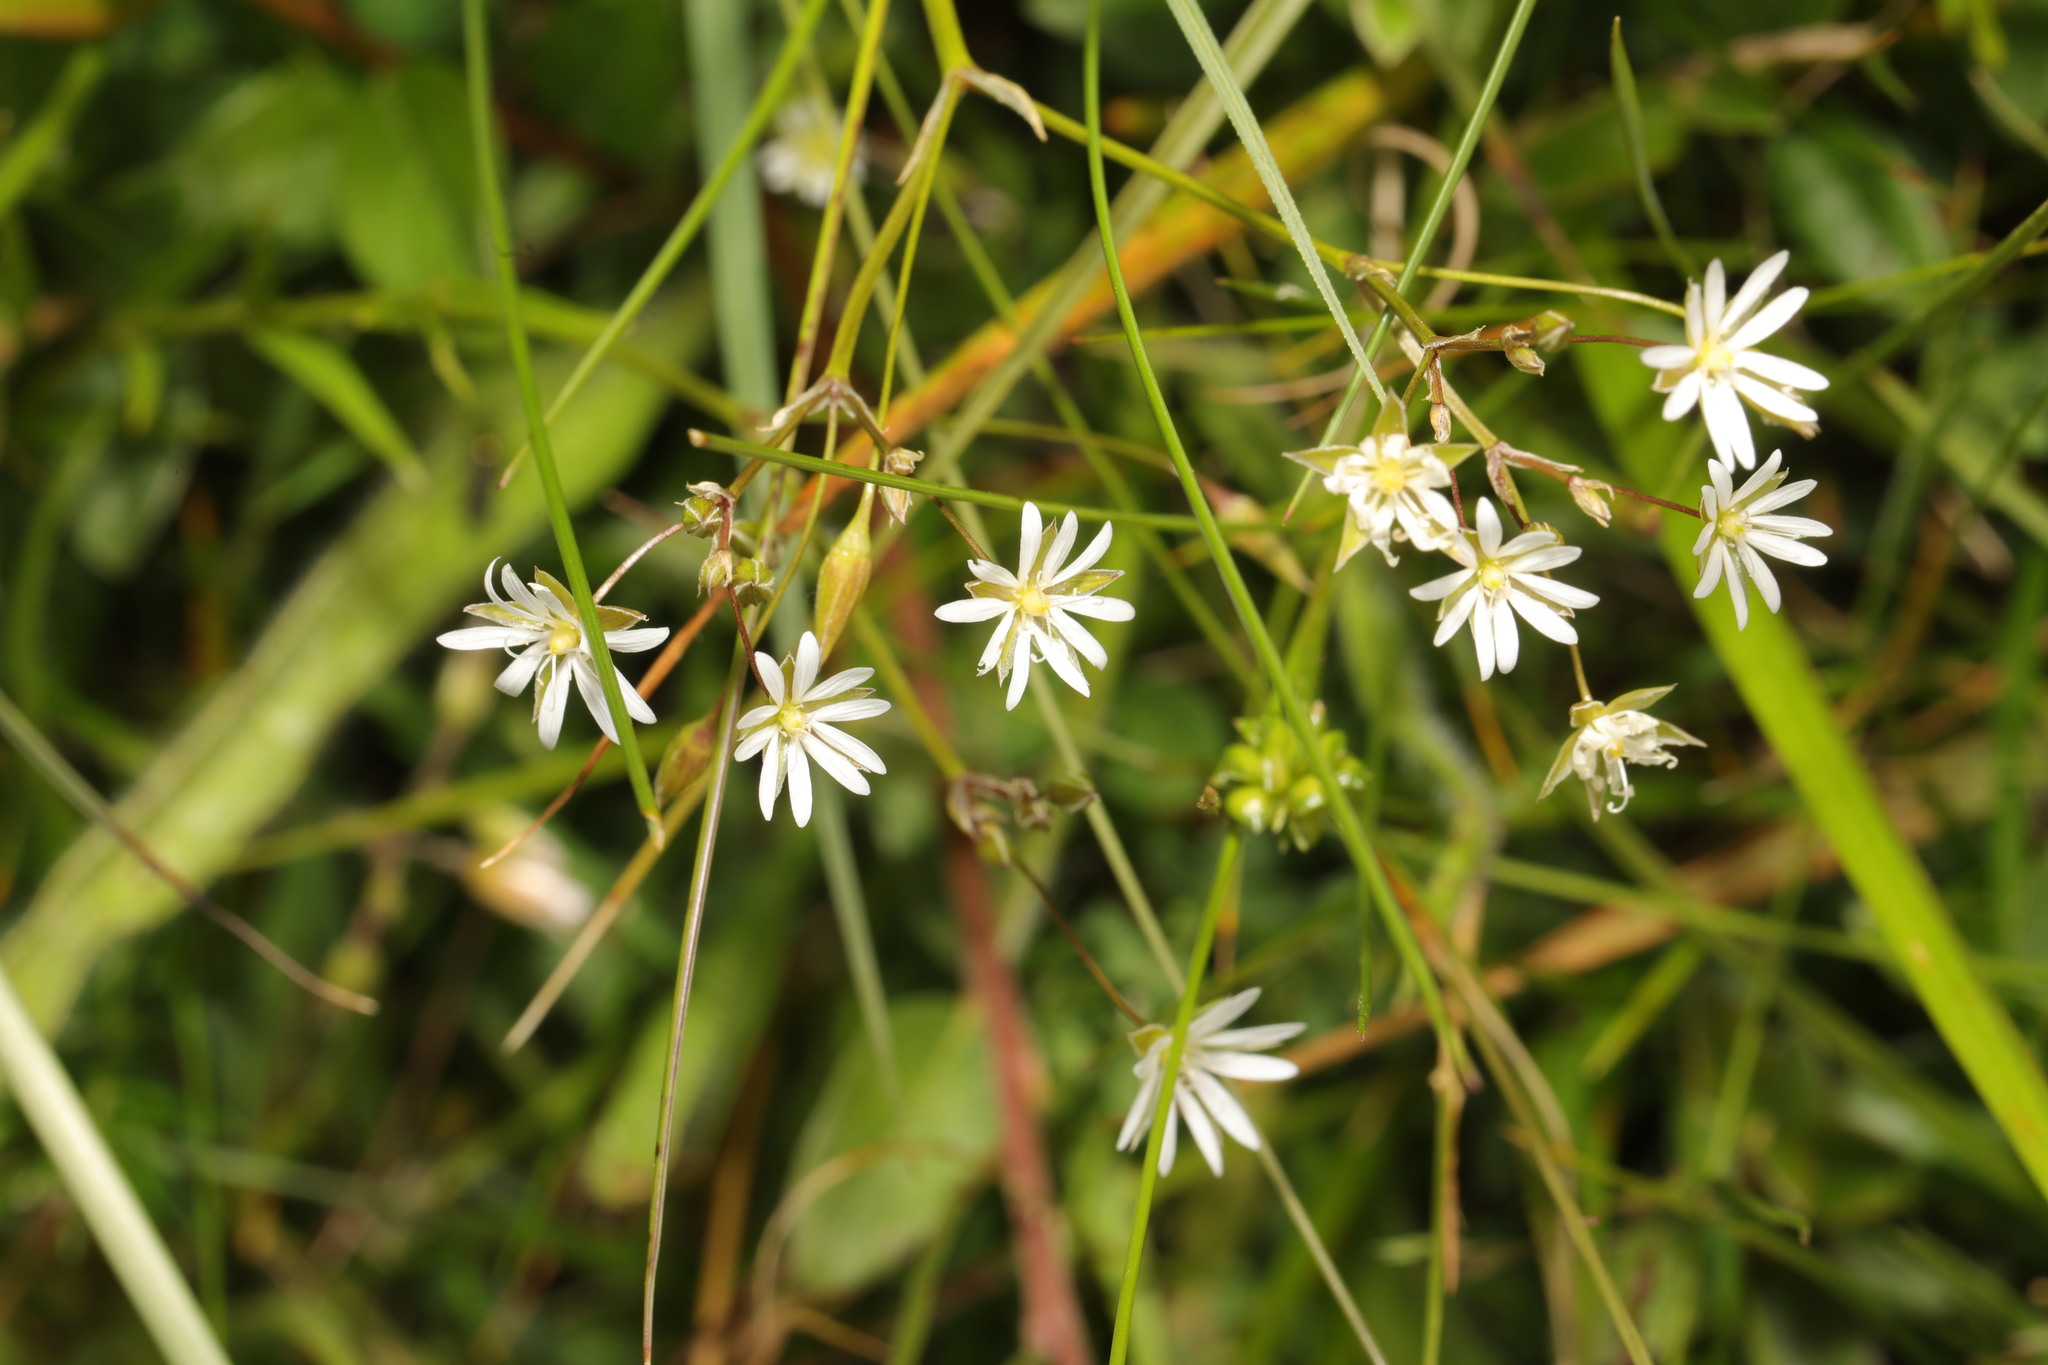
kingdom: Plantae
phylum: Tracheophyta
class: Magnoliopsida
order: Caryophyllales
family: Caryophyllaceae
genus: Stellaria
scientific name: Stellaria graminea
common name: Grass-like starwort
